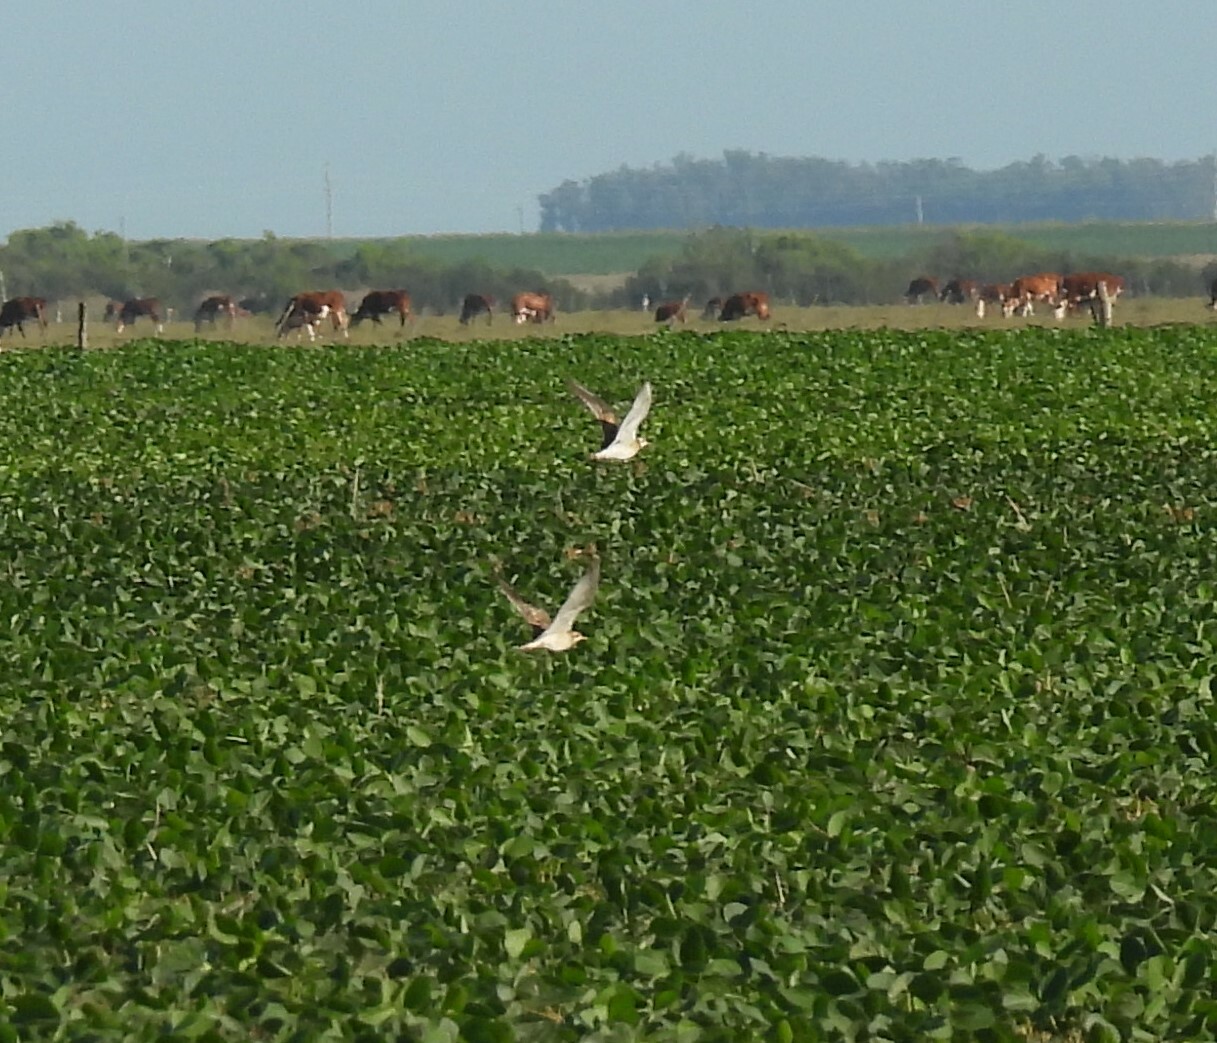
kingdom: Animalia
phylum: Chordata
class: Aves
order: Charadriiformes
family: Scolopacidae
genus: Bartramia
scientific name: Bartramia longicauda
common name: Upland sandpiper
